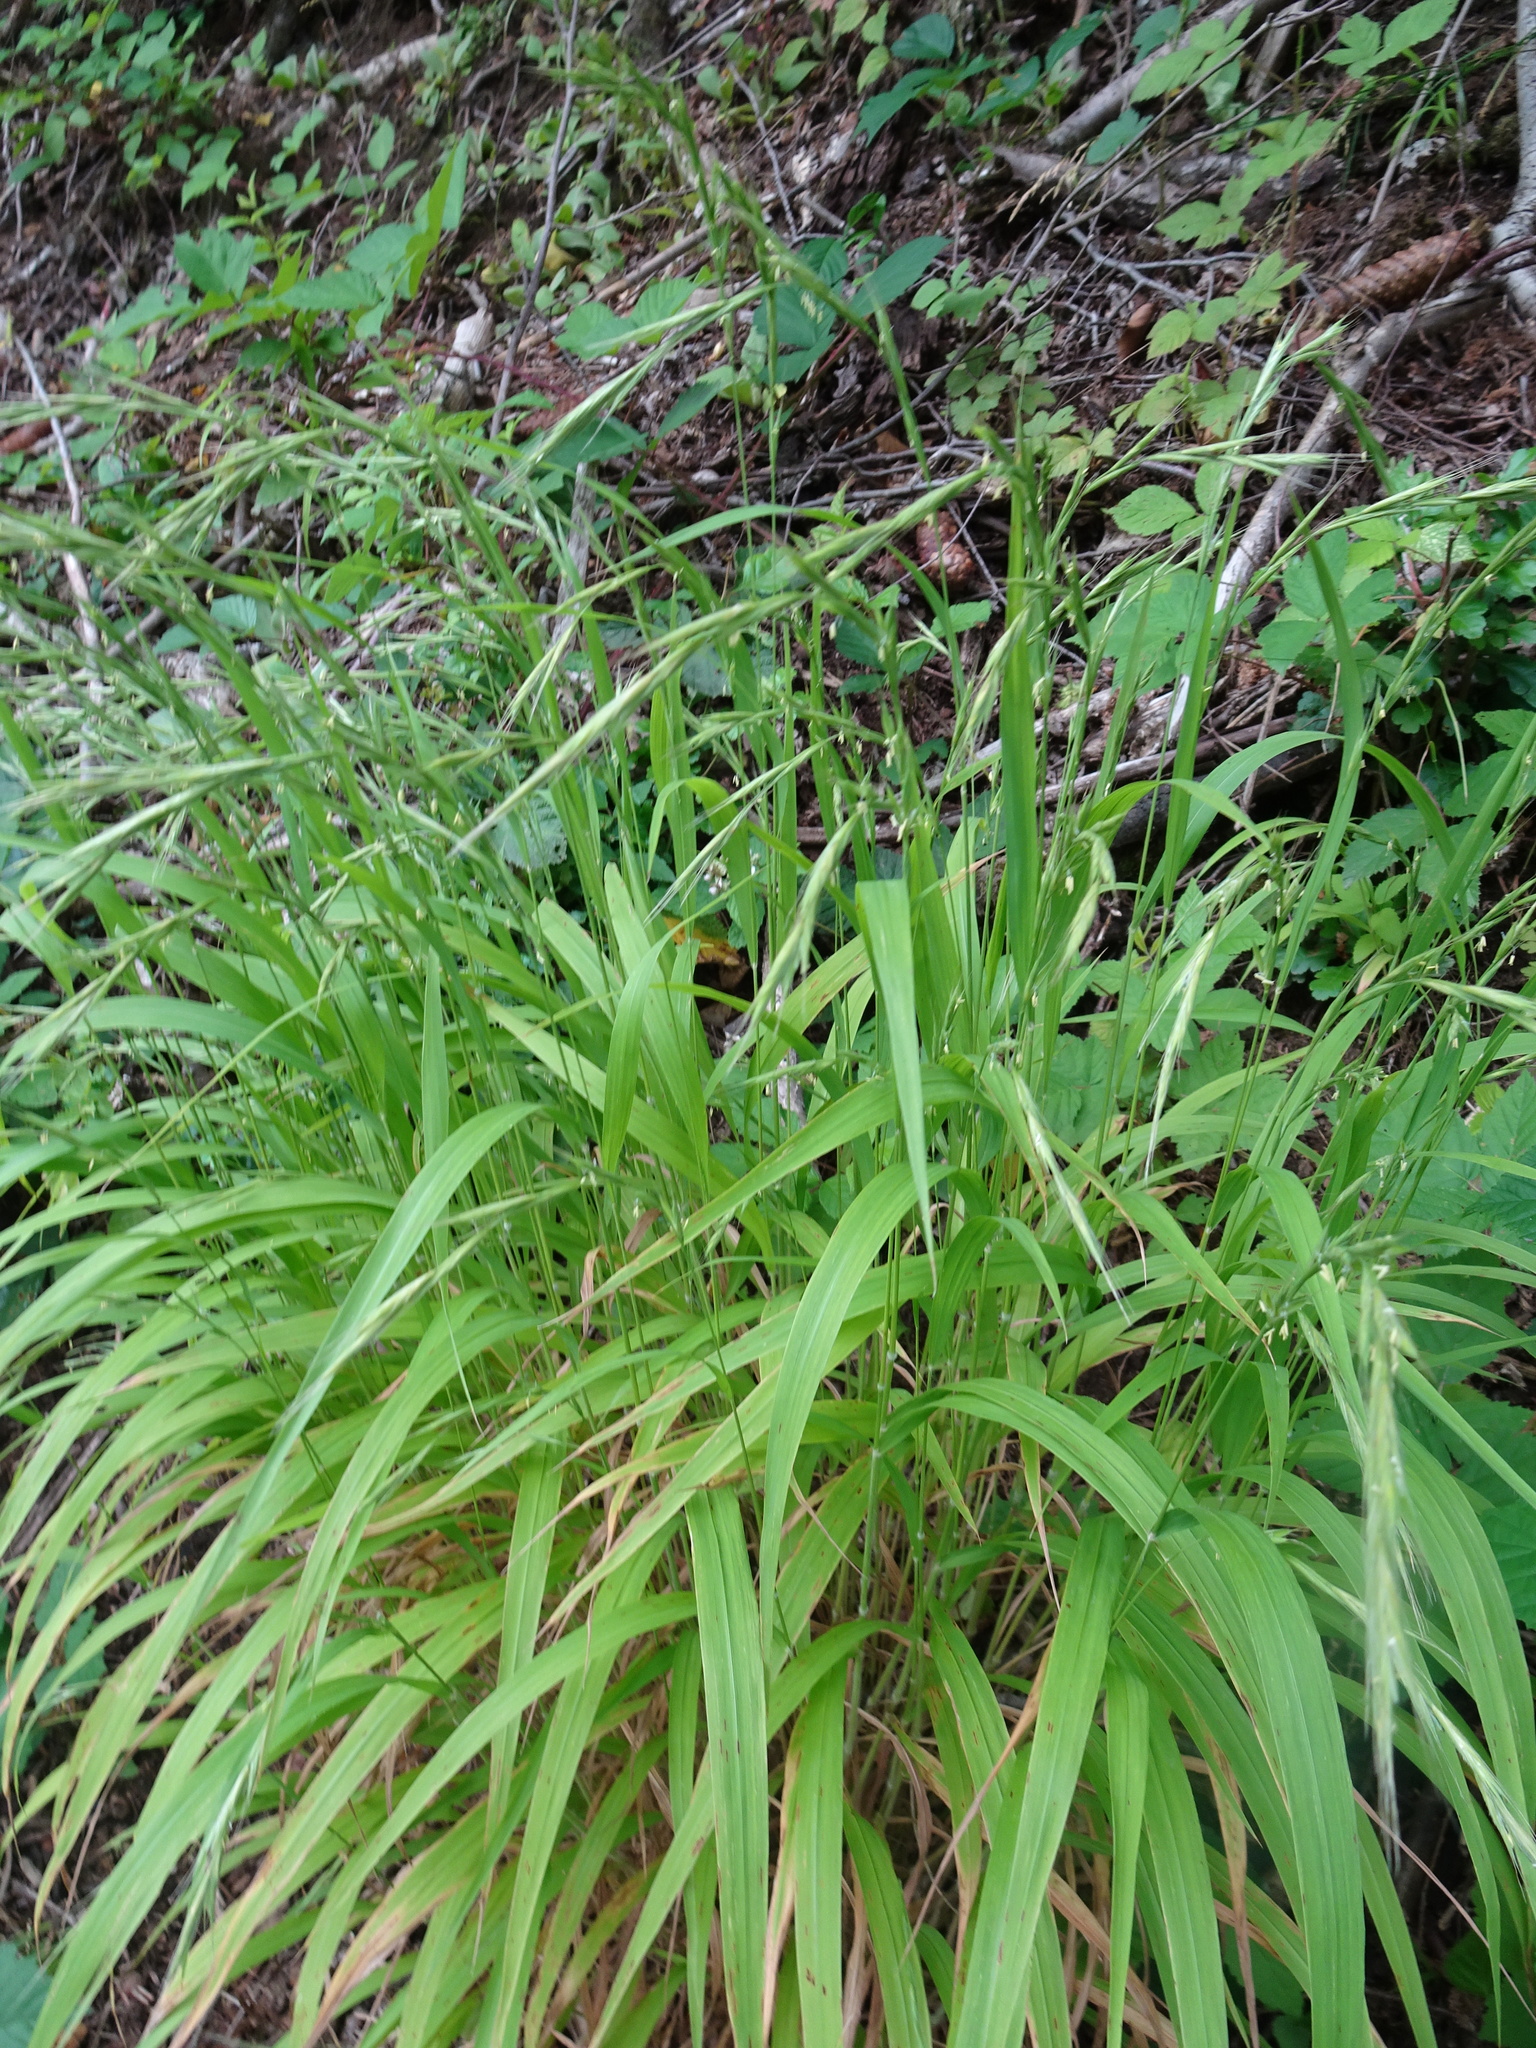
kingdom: Plantae
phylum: Tracheophyta
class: Liliopsida
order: Poales
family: Poaceae
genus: Brachypodium
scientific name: Brachypodium sylvaticum
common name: False-brome
